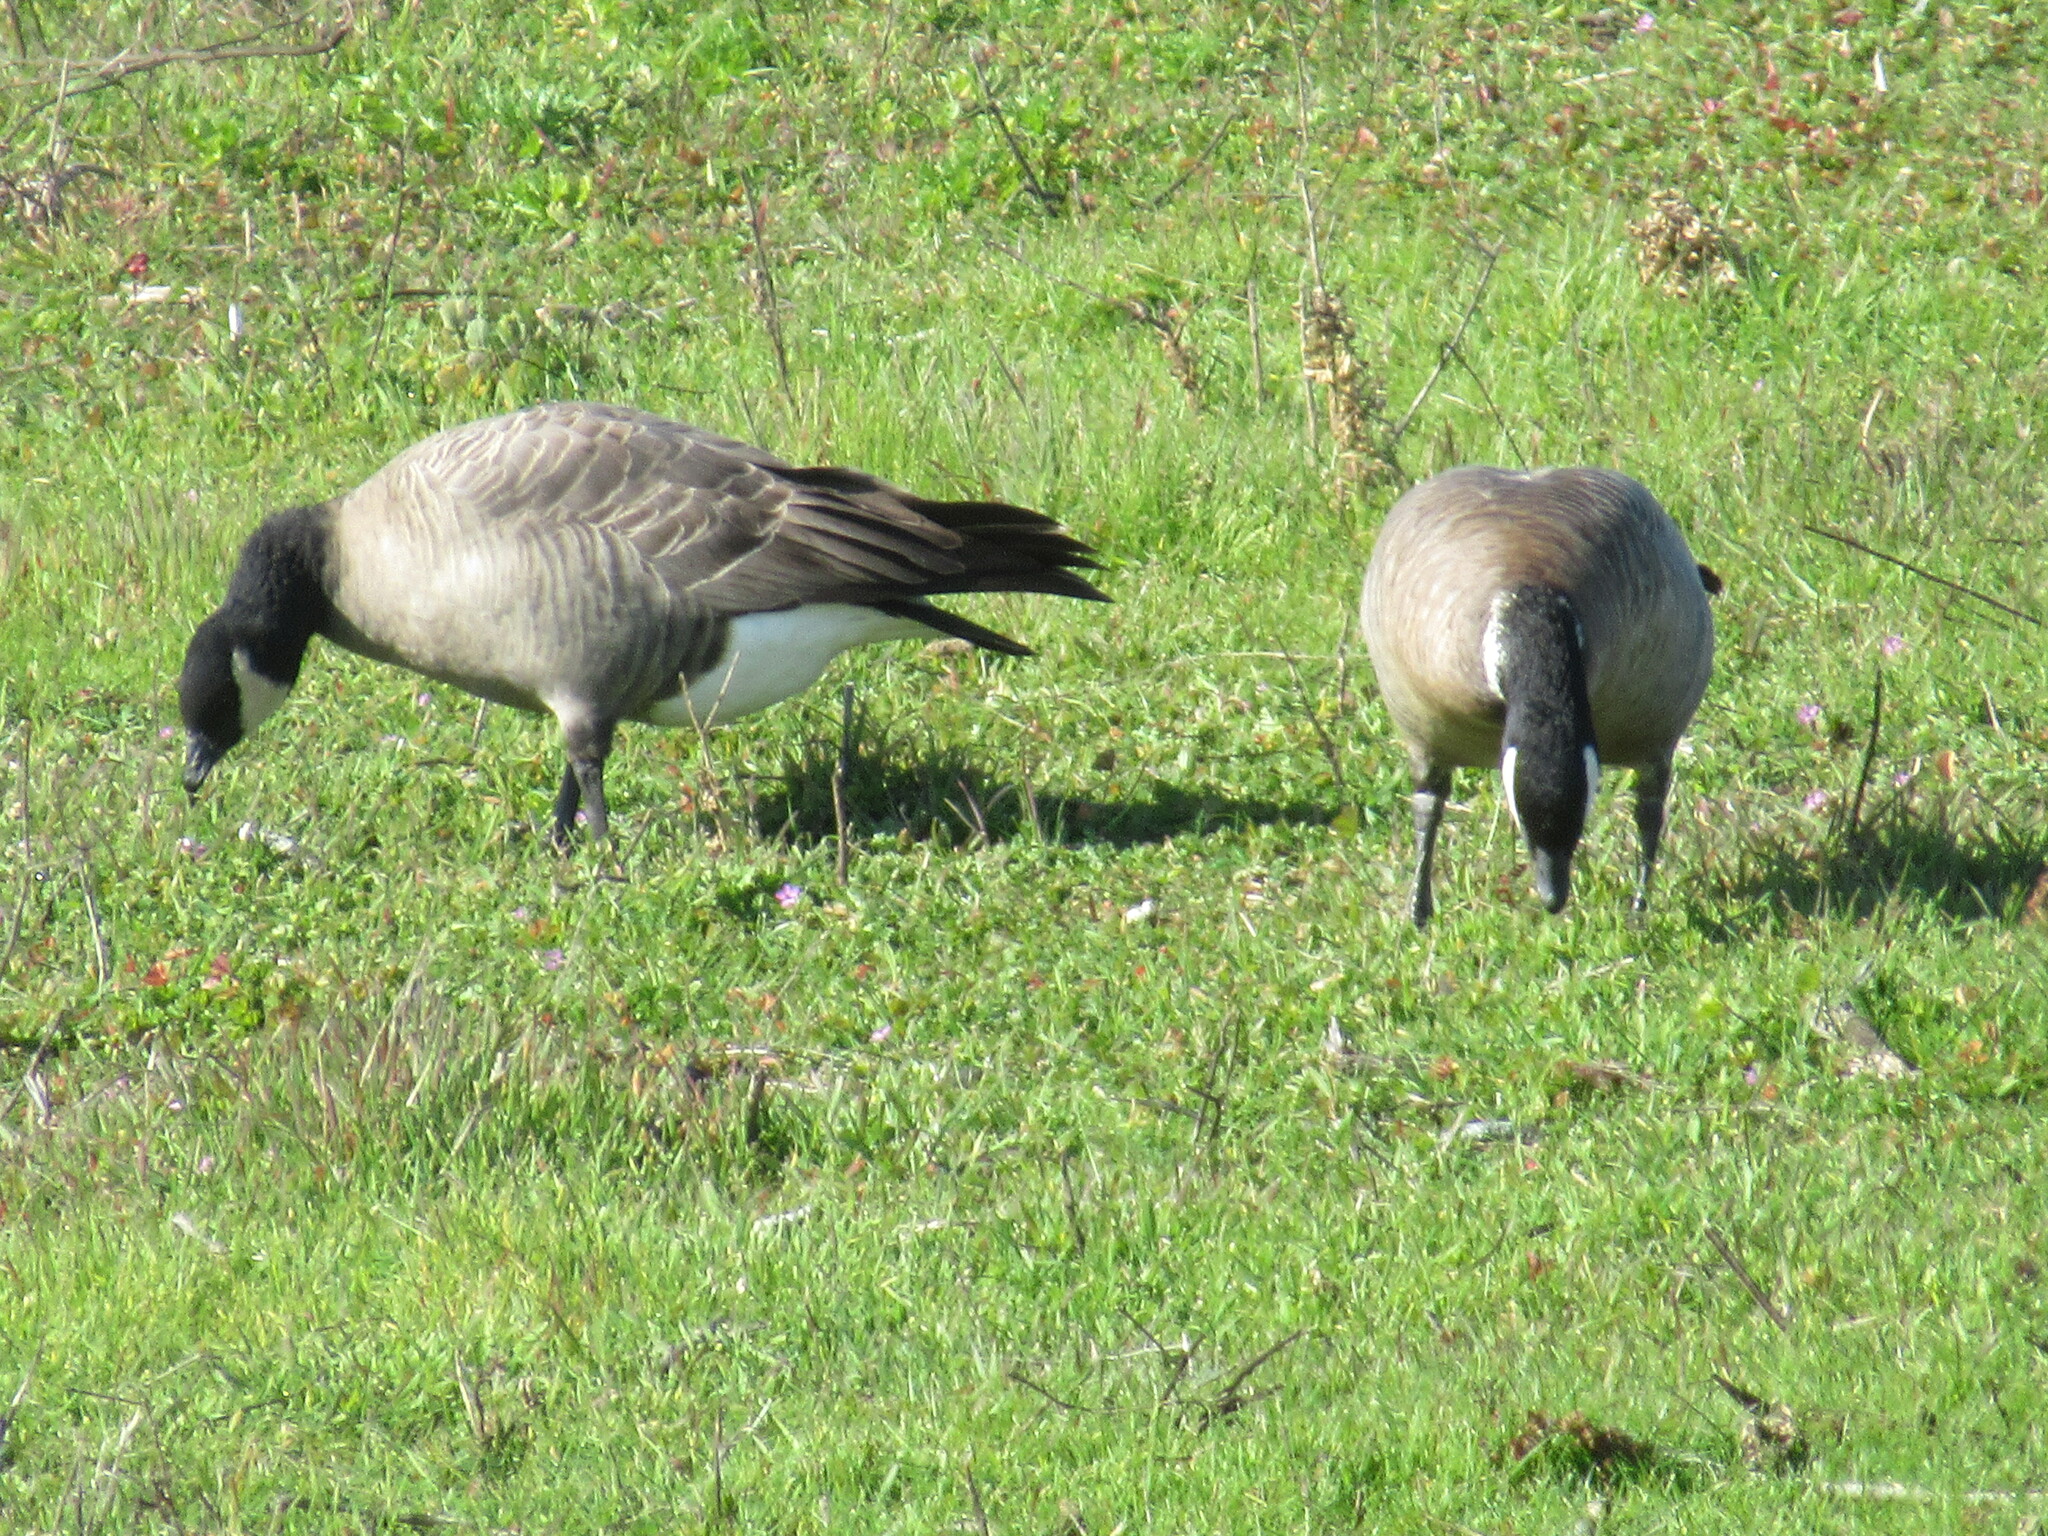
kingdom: Animalia
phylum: Chordata
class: Aves
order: Anseriformes
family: Anatidae
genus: Branta
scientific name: Branta hutchinsii
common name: Cackling goose
